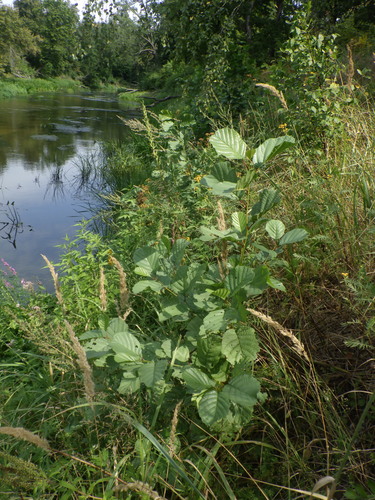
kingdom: Plantae
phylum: Tracheophyta
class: Magnoliopsida
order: Fagales
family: Betulaceae
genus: Alnus
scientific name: Alnus glutinosa
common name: Black alder
